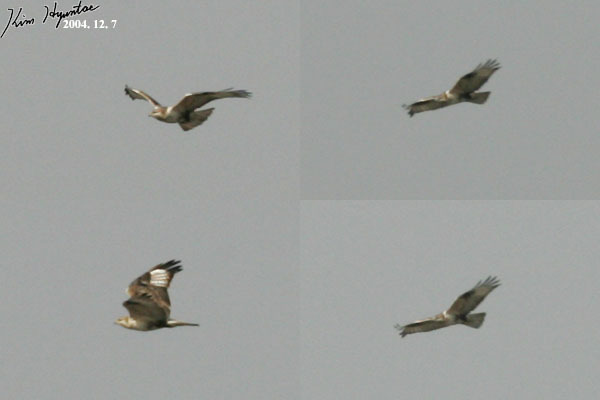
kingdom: Animalia
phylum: Chordata
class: Aves
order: Accipitriformes
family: Accipitridae
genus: Buteo
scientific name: Buteo hemilasius
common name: Upland buzzard
